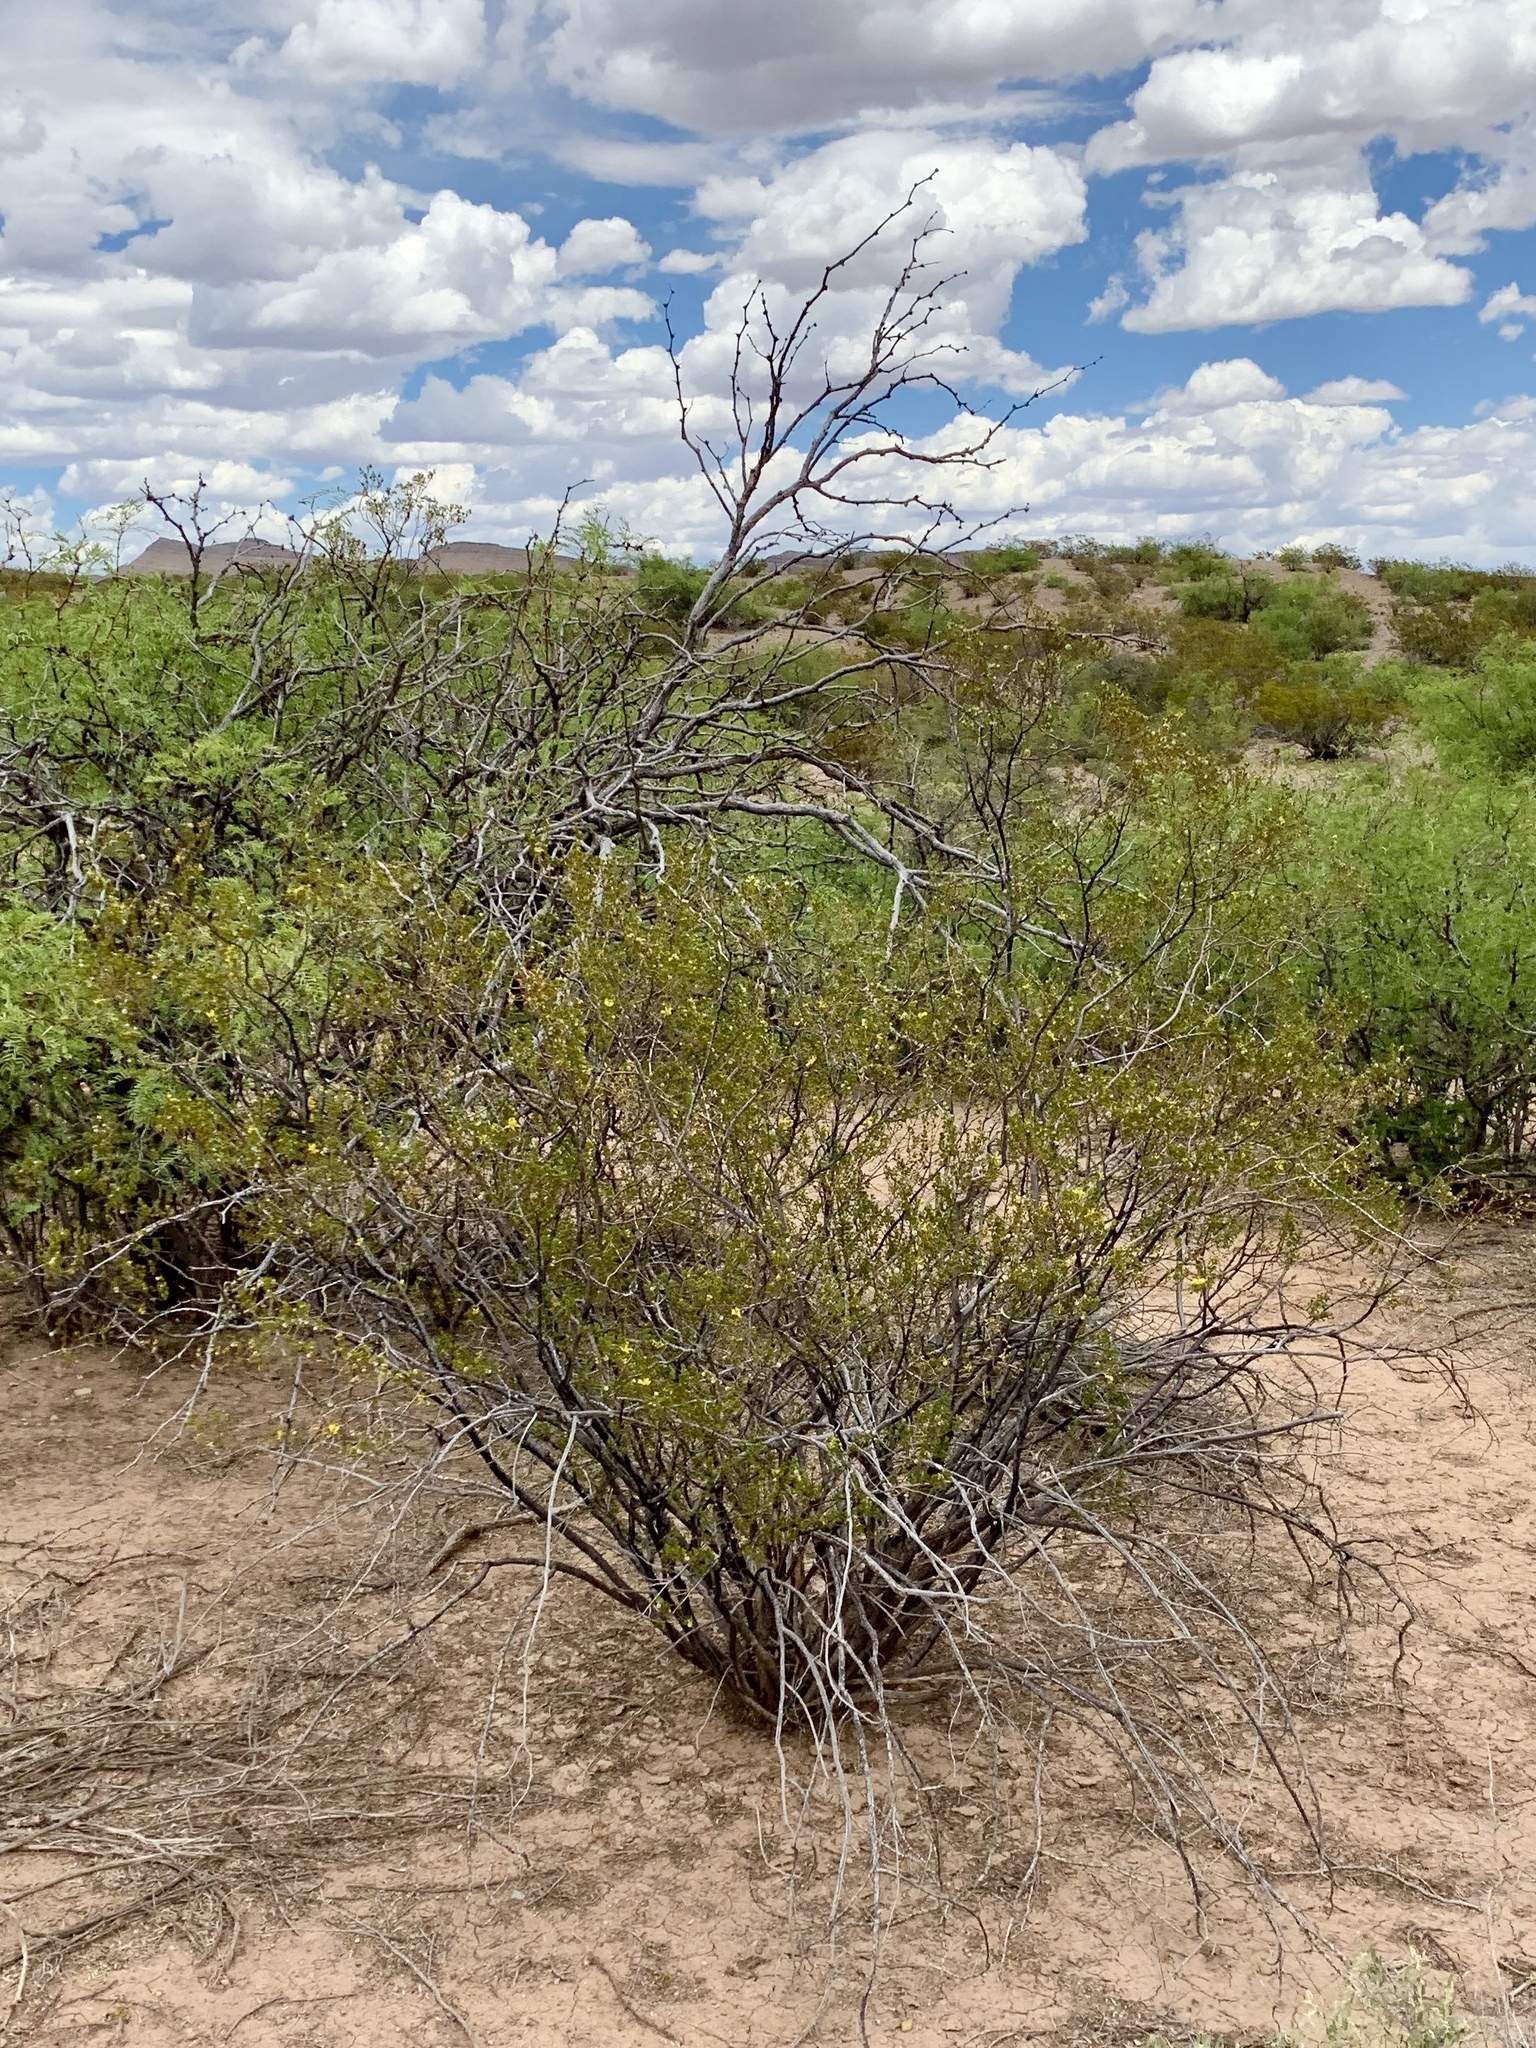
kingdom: Plantae
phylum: Tracheophyta
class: Magnoliopsida
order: Zygophyllales
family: Zygophyllaceae
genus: Larrea
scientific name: Larrea tridentata
